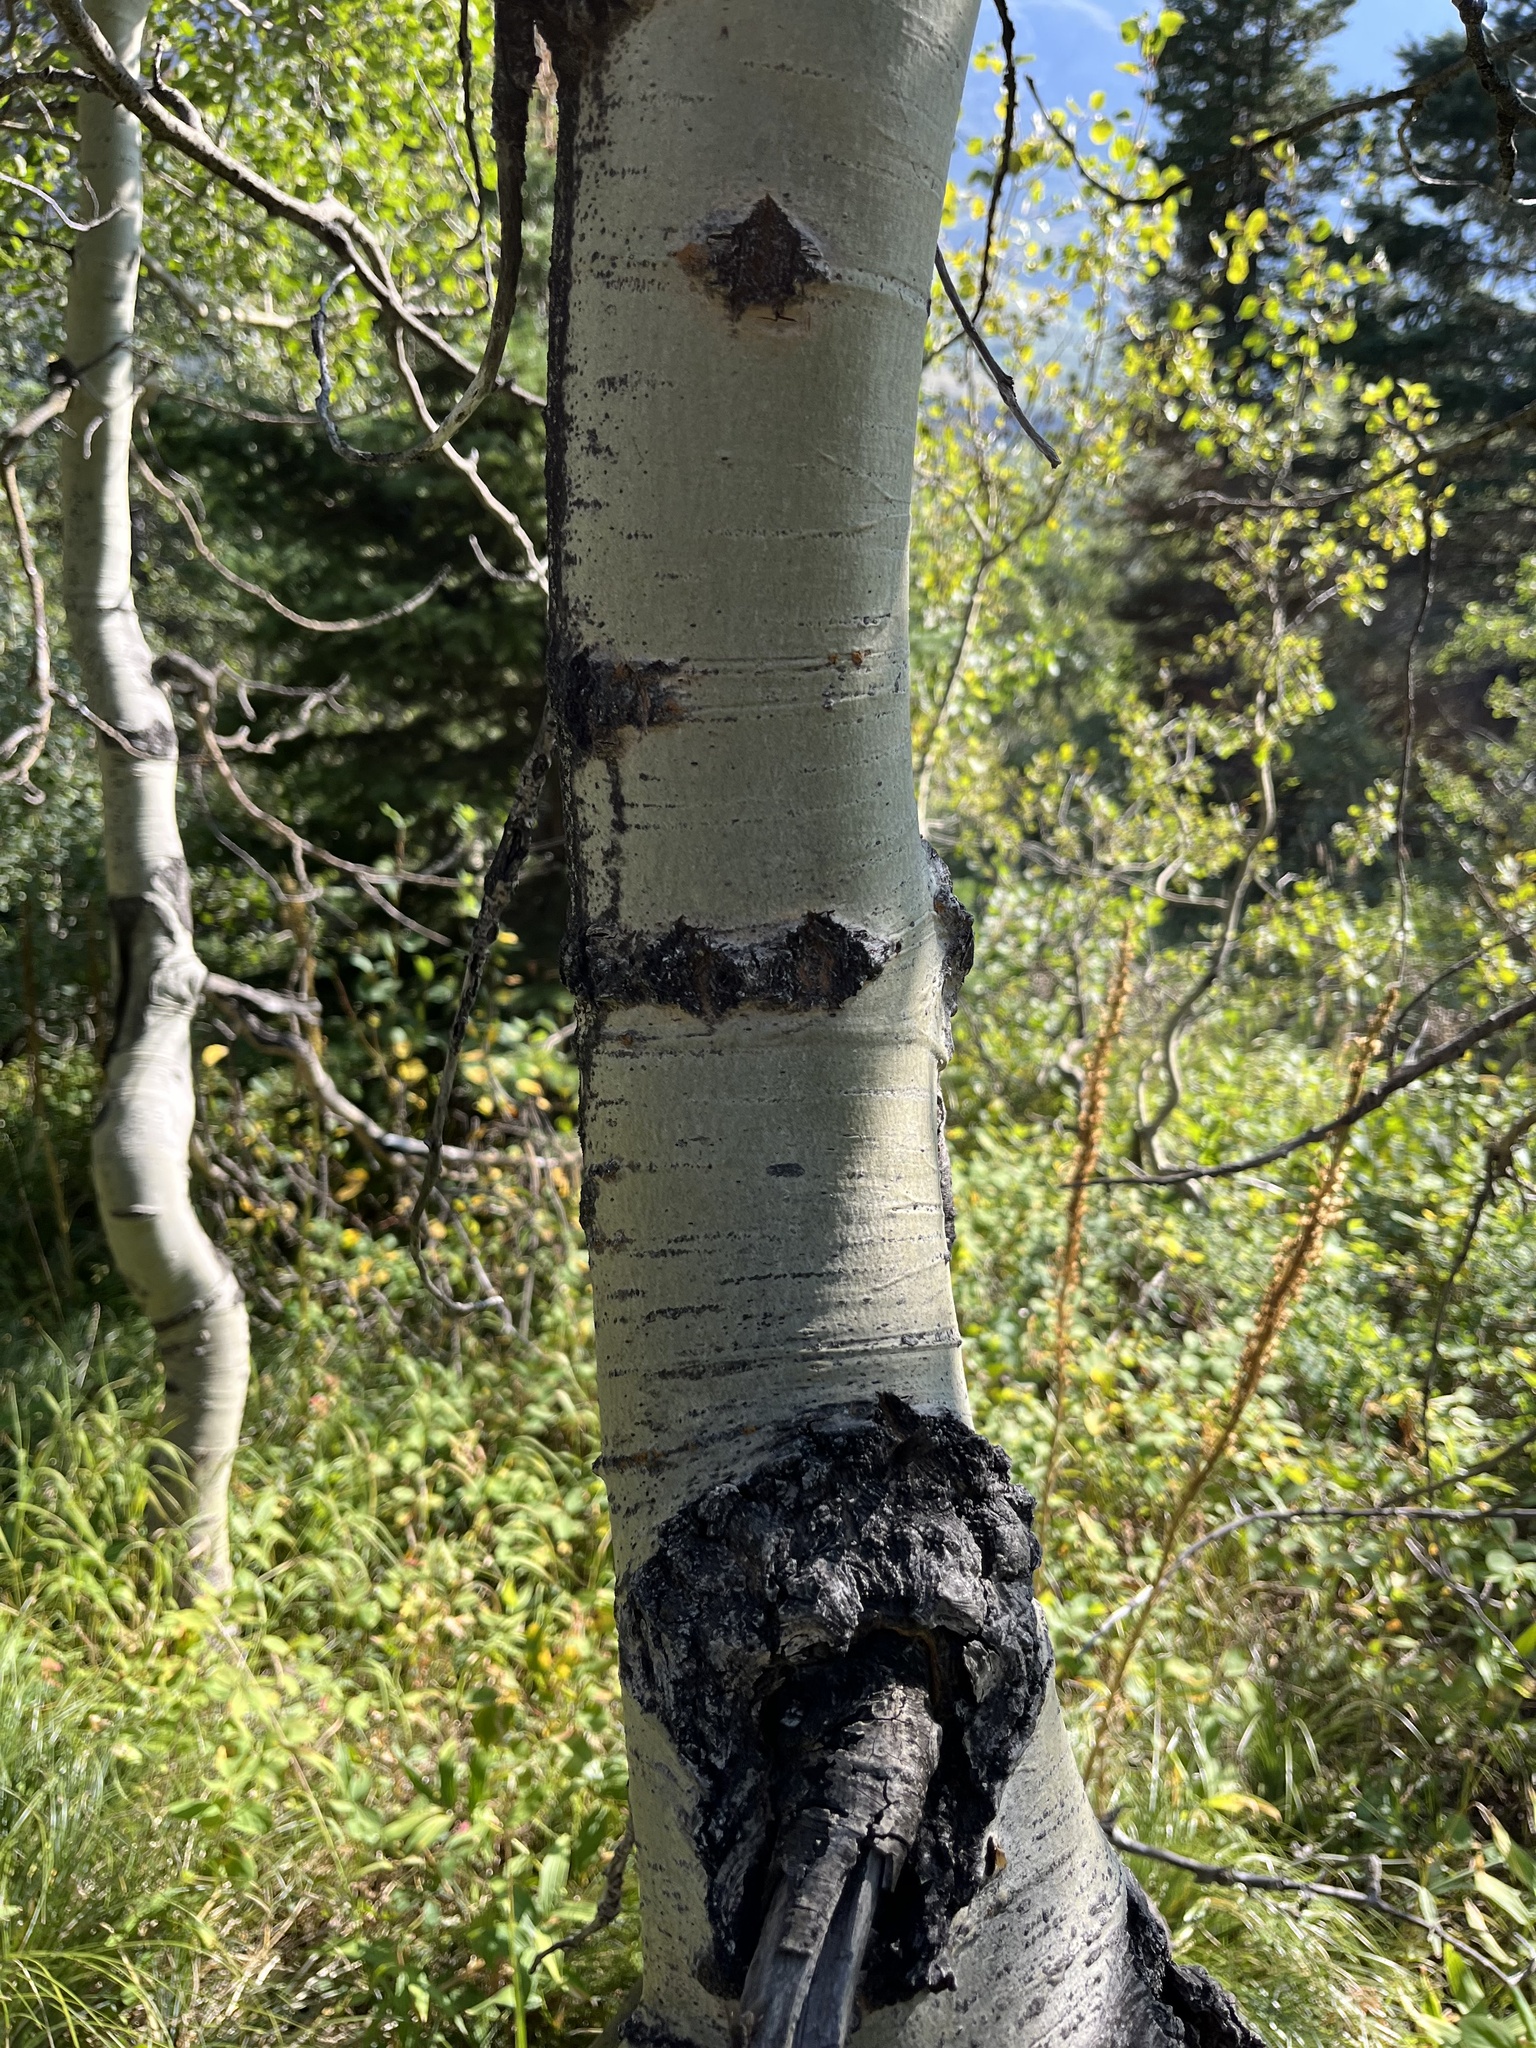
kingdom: Plantae
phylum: Tracheophyta
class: Magnoliopsida
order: Malpighiales
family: Salicaceae
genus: Populus
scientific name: Populus tremuloides
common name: Quaking aspen
